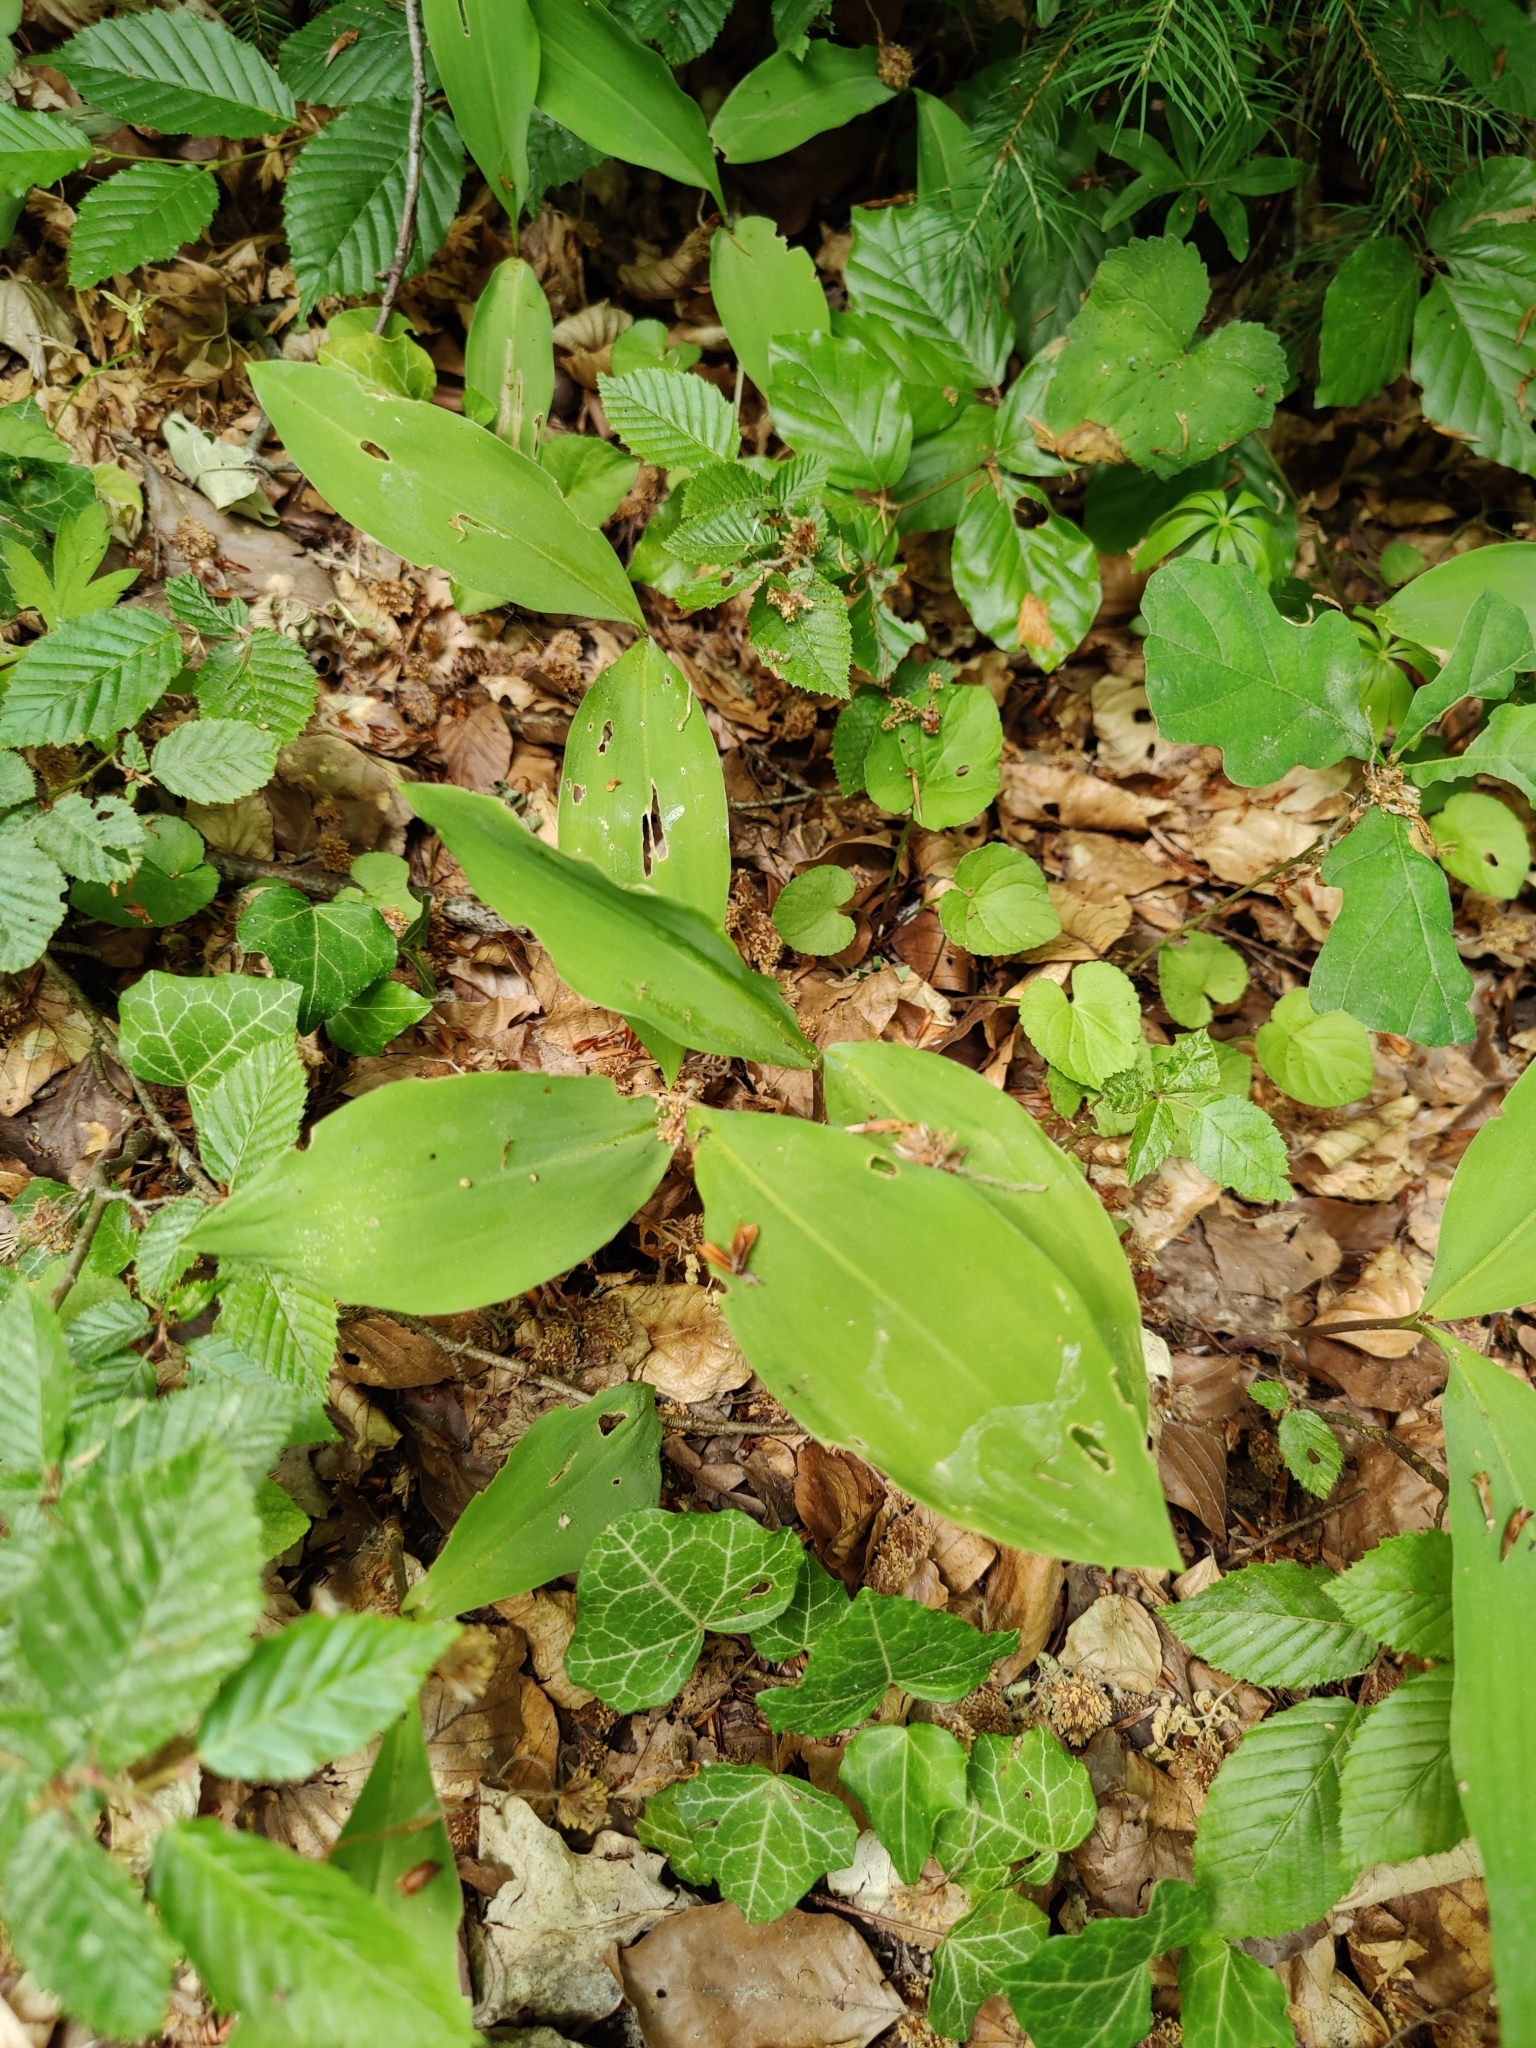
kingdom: Plantae
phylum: Tracheophyta
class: Liliopsida
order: Asparagales
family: Asparagaceae
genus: Convallaria
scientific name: Convallaria majalis
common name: Lily-of-the-valley
